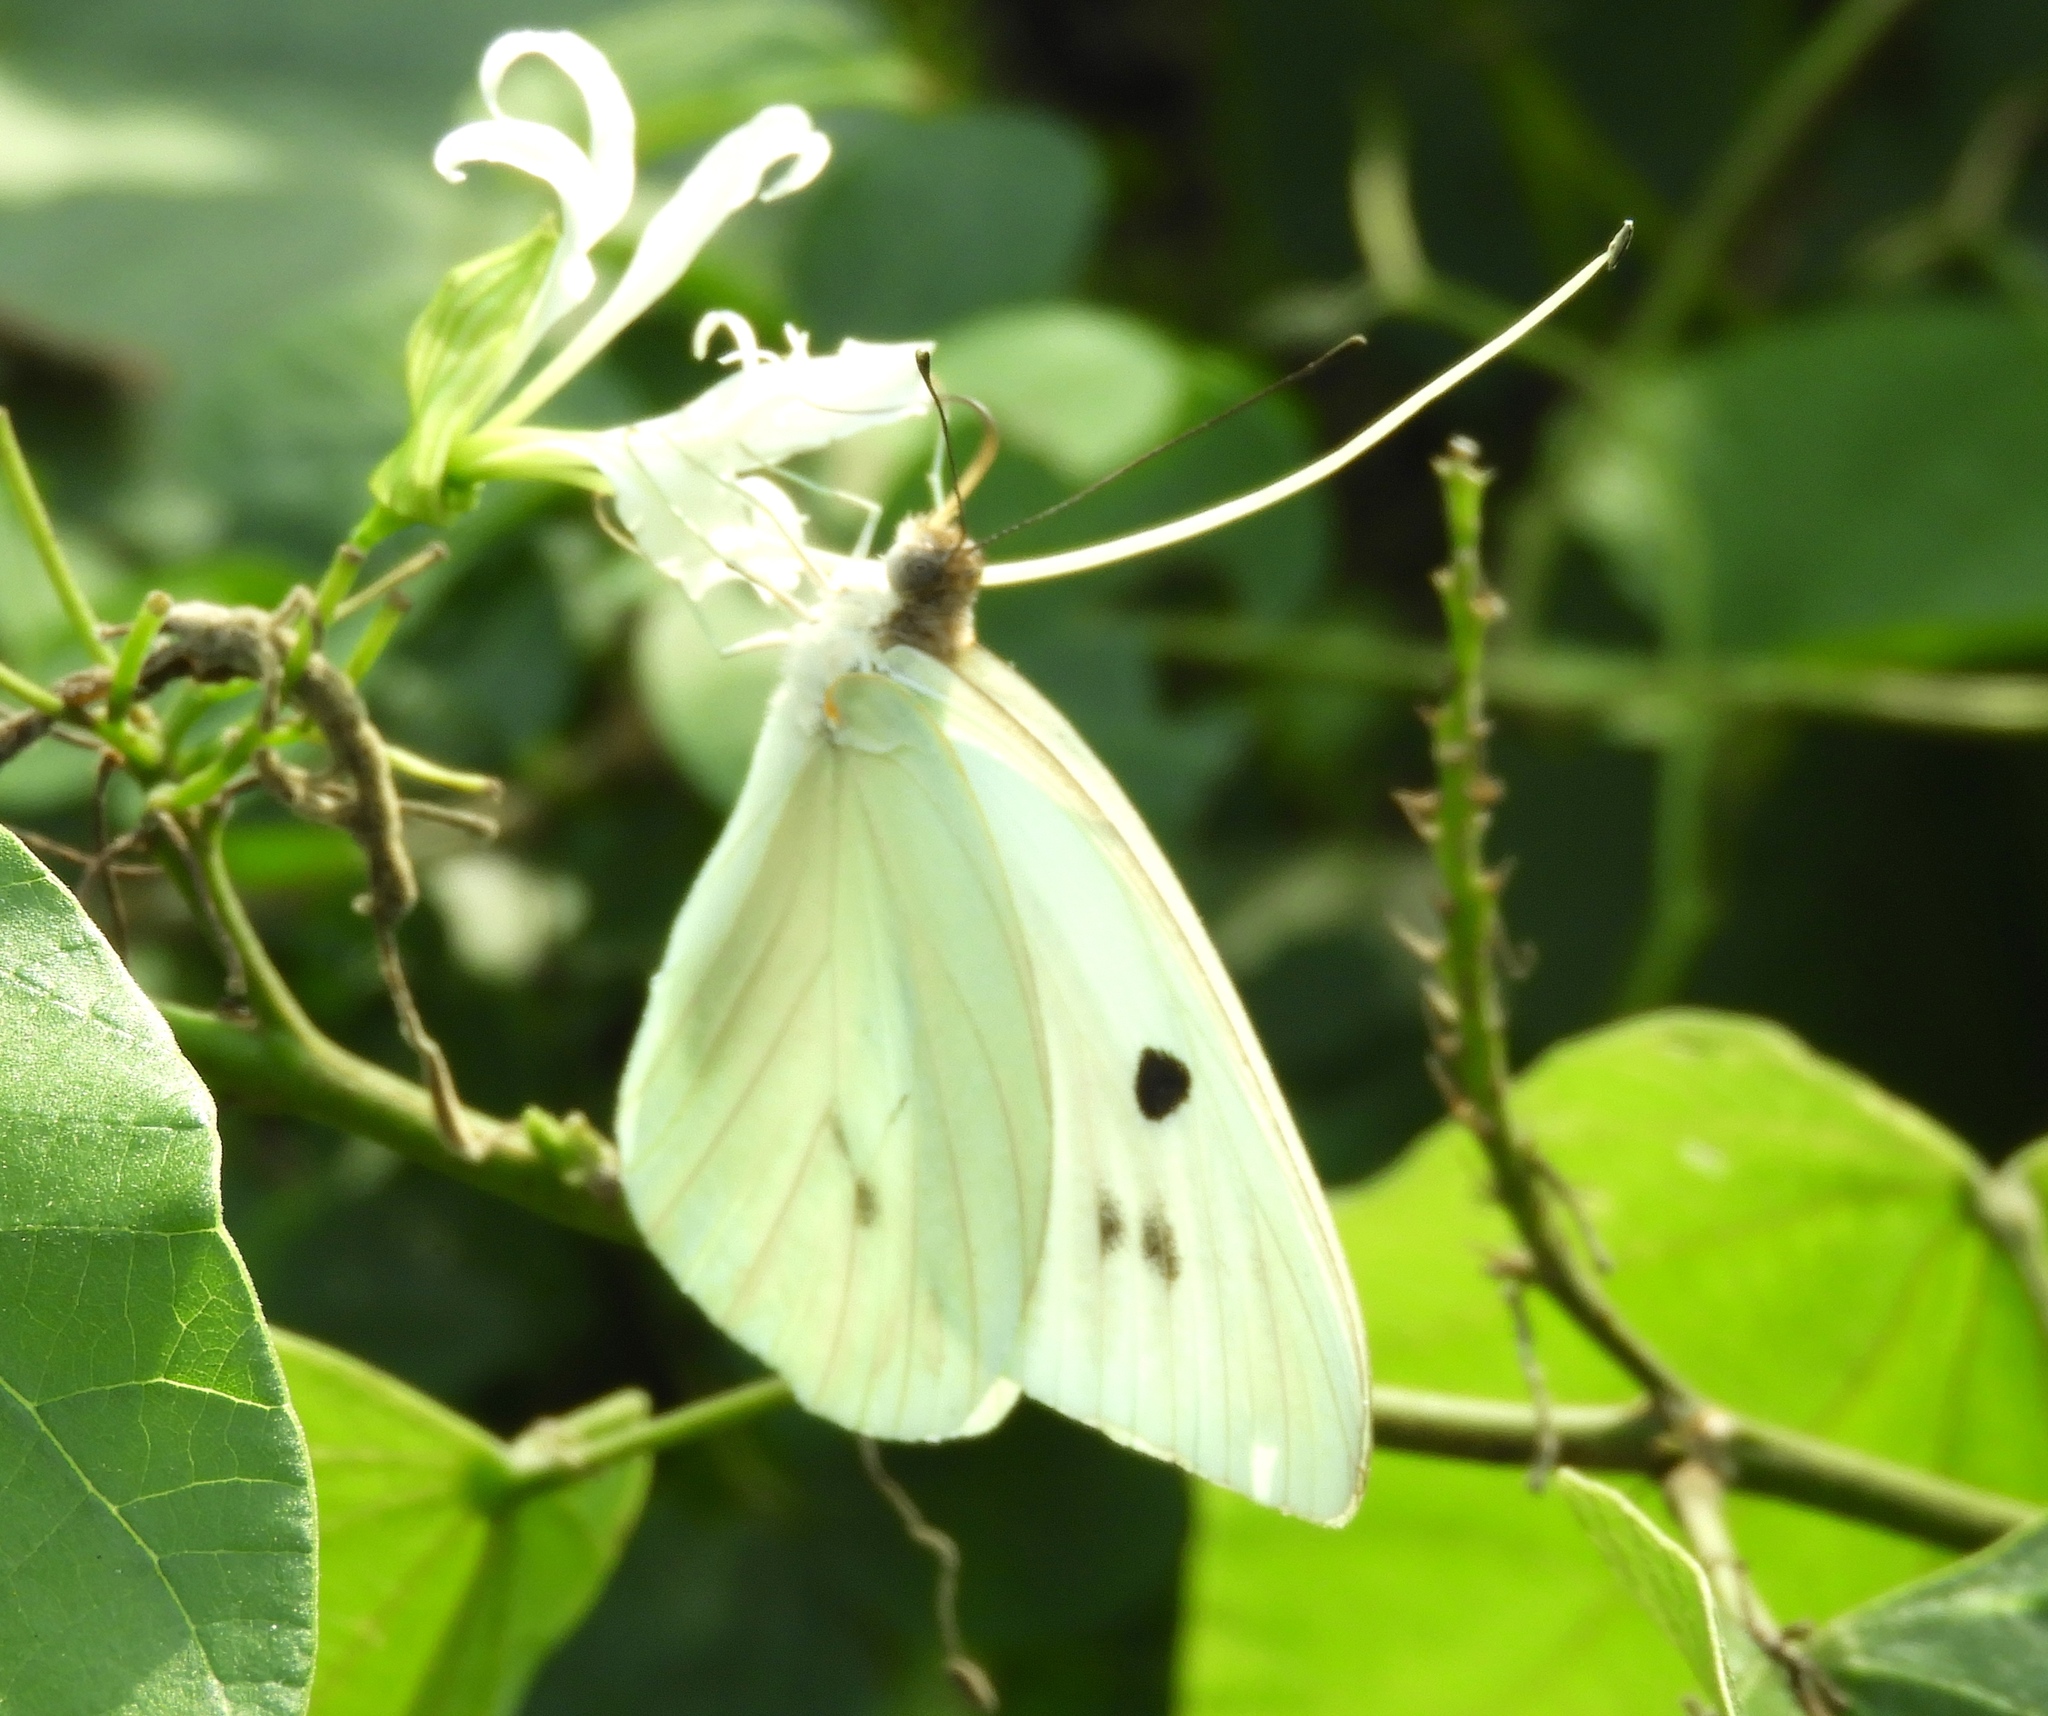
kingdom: Animalia
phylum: Arthropoda
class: Insecta
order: Lepidoptera
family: Pieridae
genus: Ganyra
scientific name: Ganyra josephina
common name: Giant white
